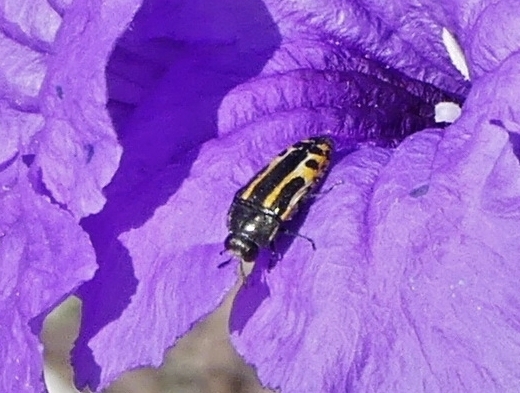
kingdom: Animalia
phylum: Arthropoda
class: Insecta
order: Coleoptera
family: Buprestidae
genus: Acmaeodera
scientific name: Acmaeodera scalaris
